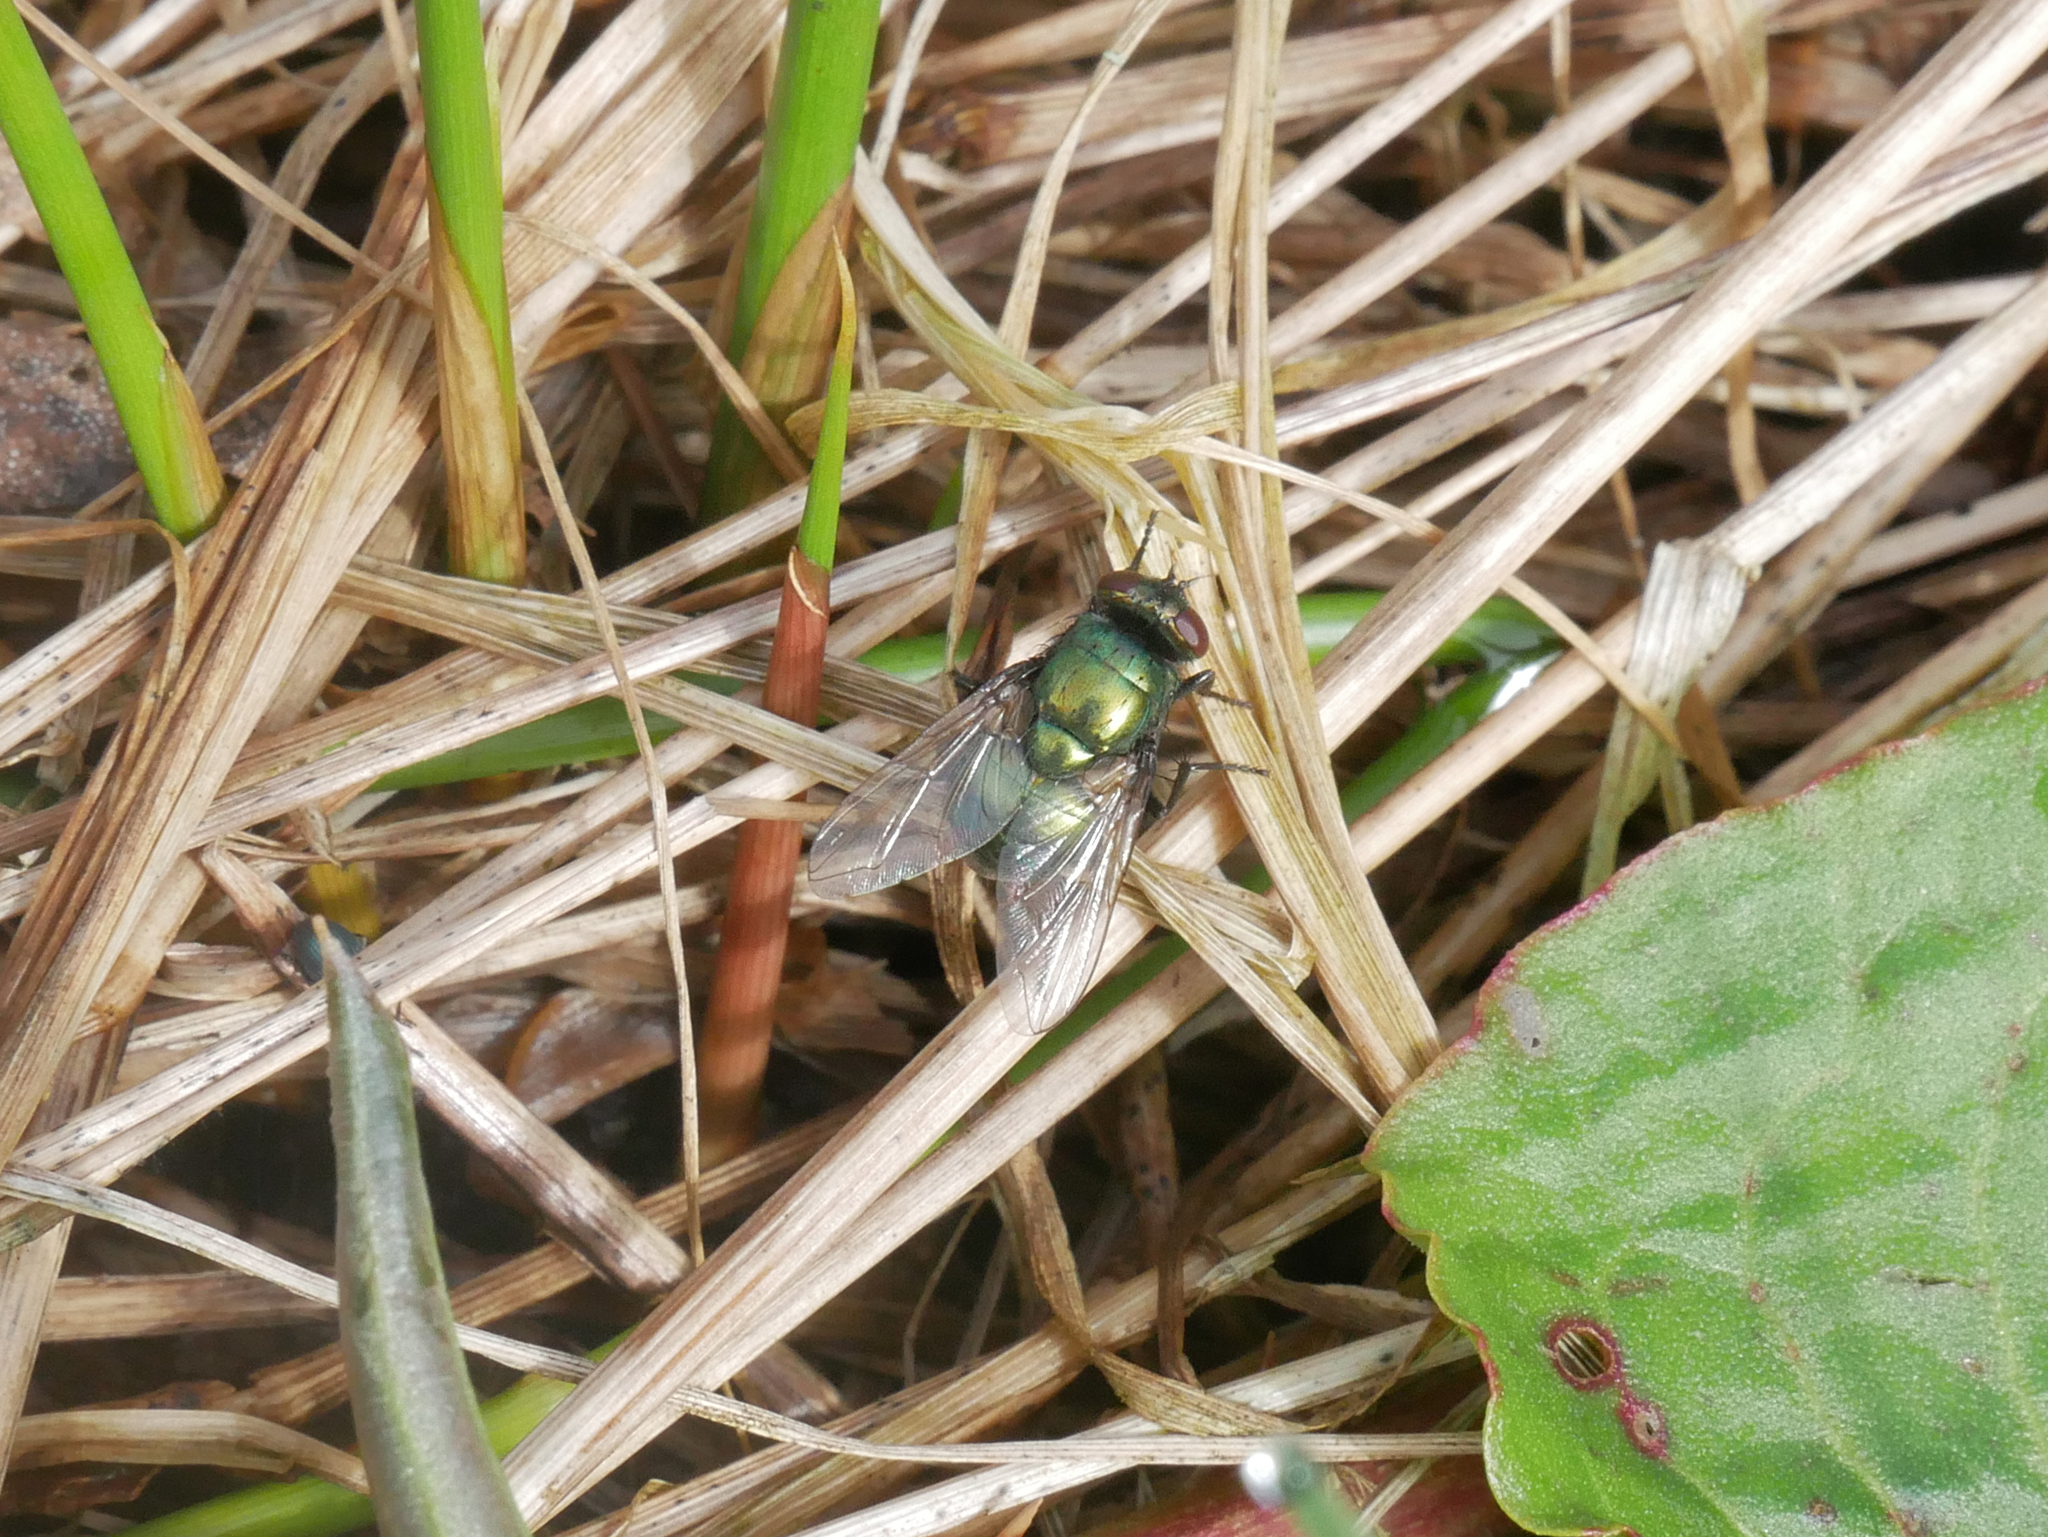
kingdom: Animalia
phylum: Arthropoda
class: Insecta
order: Diptera
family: Muscidae
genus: Neomyia
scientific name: Neomyia cornicina
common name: House fly
